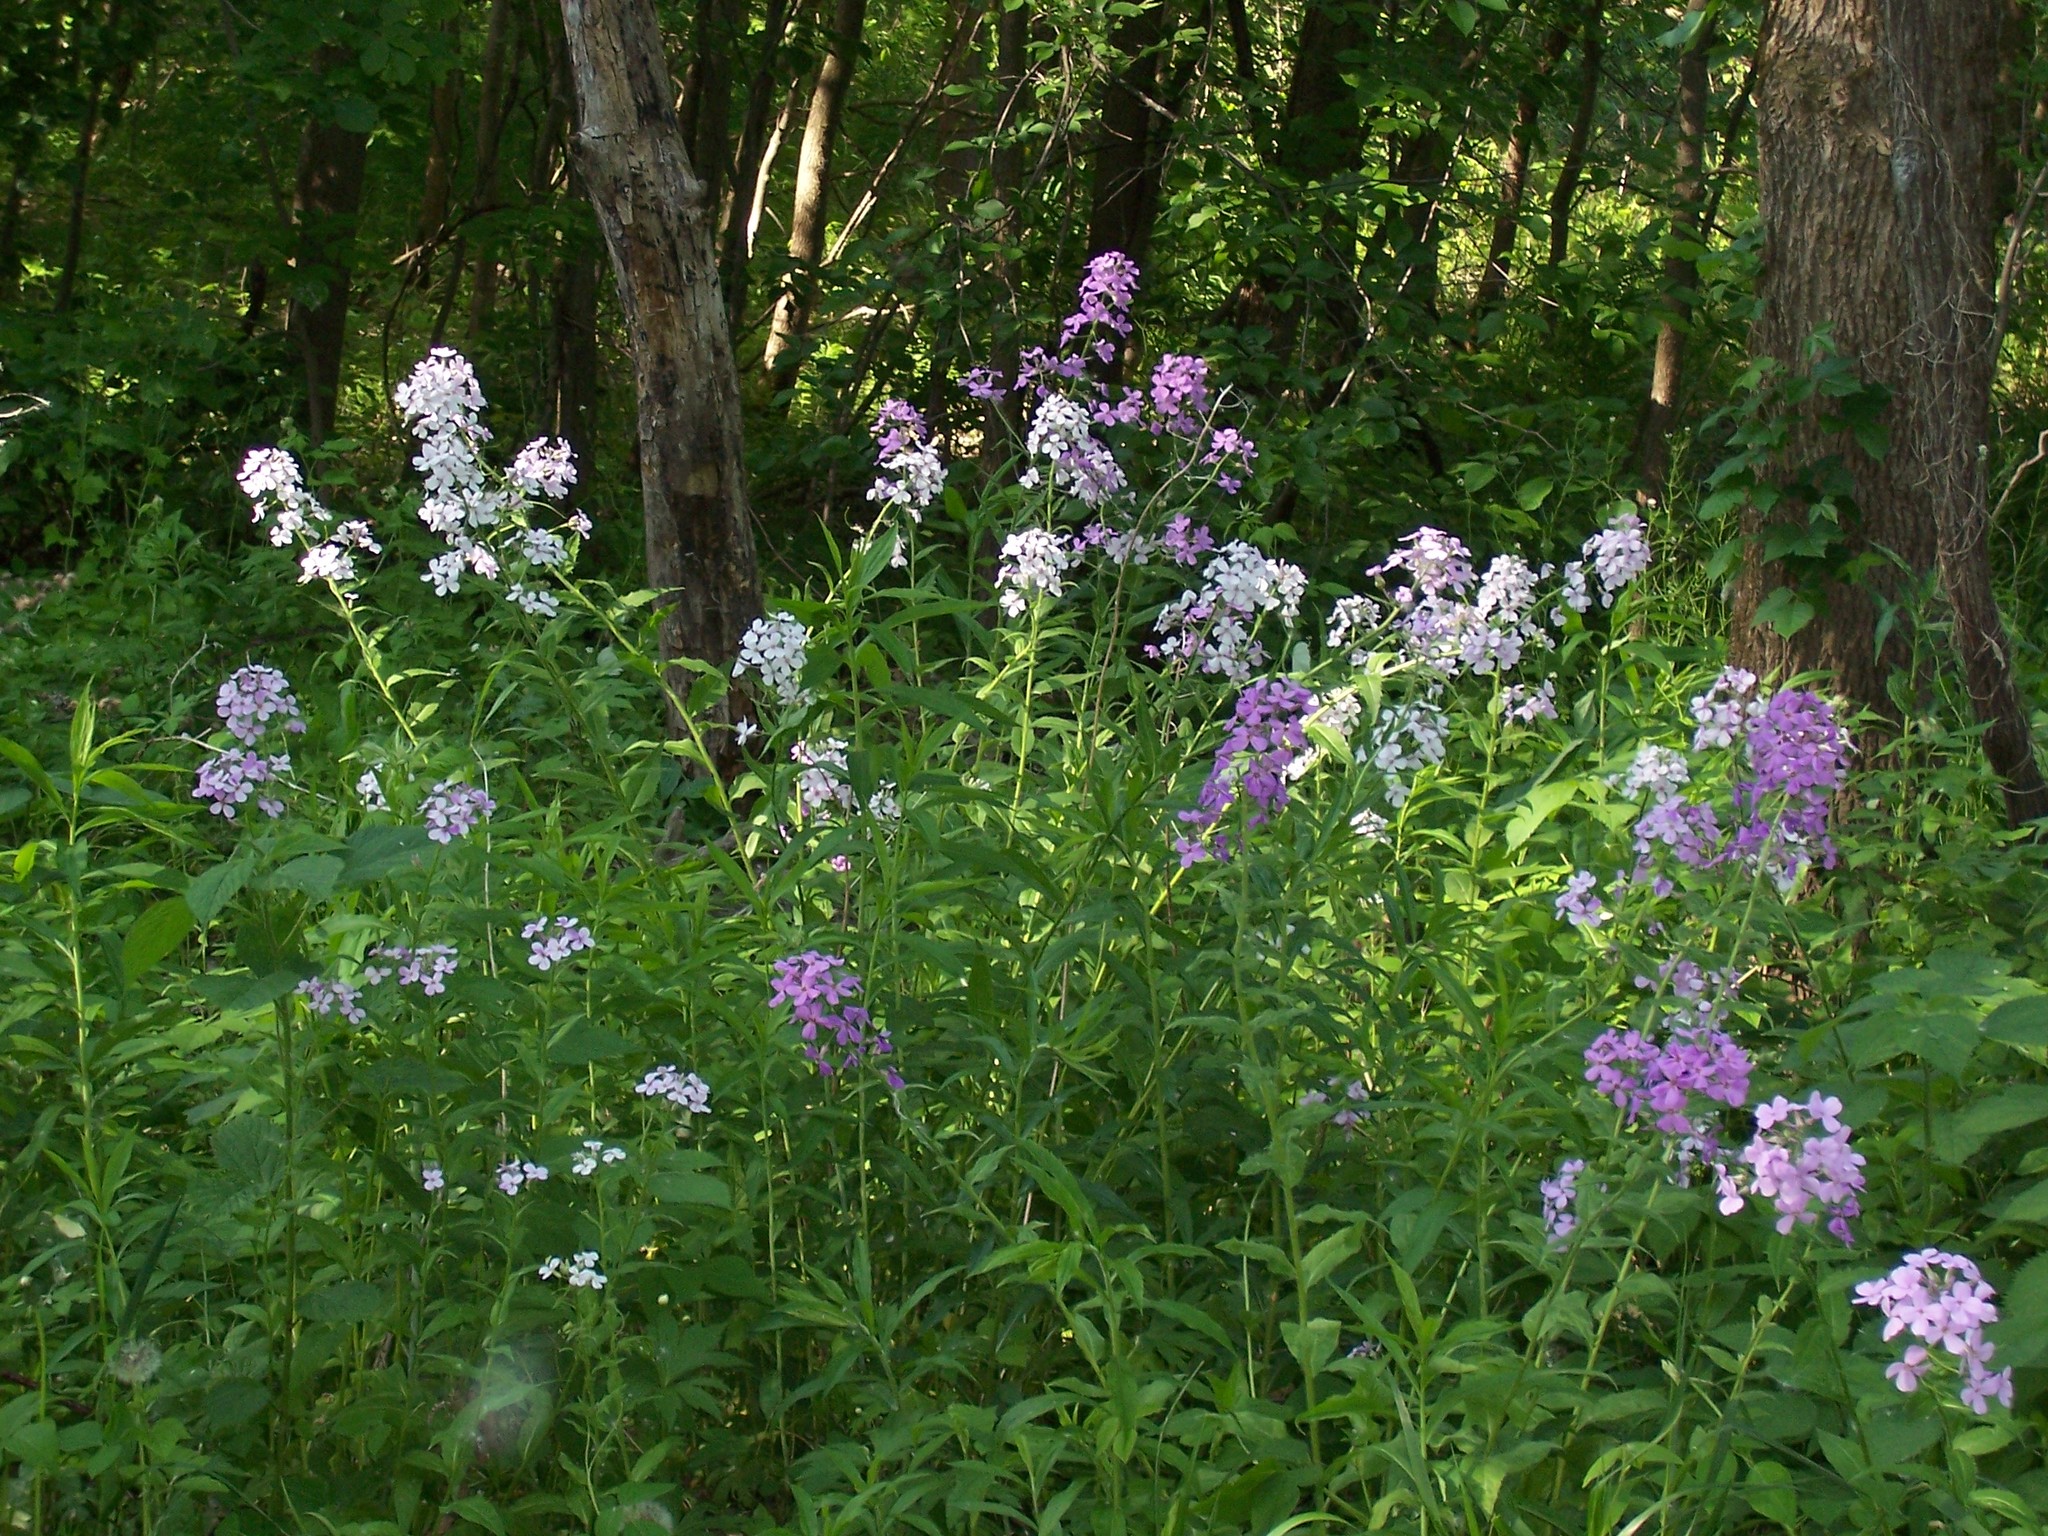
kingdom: Plantae
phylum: Tracheophyta
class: Magnoliopsida
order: Brassicales
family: Brassicaceae
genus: Hesperis
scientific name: Hesperis matronalis
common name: Dame's-violet
